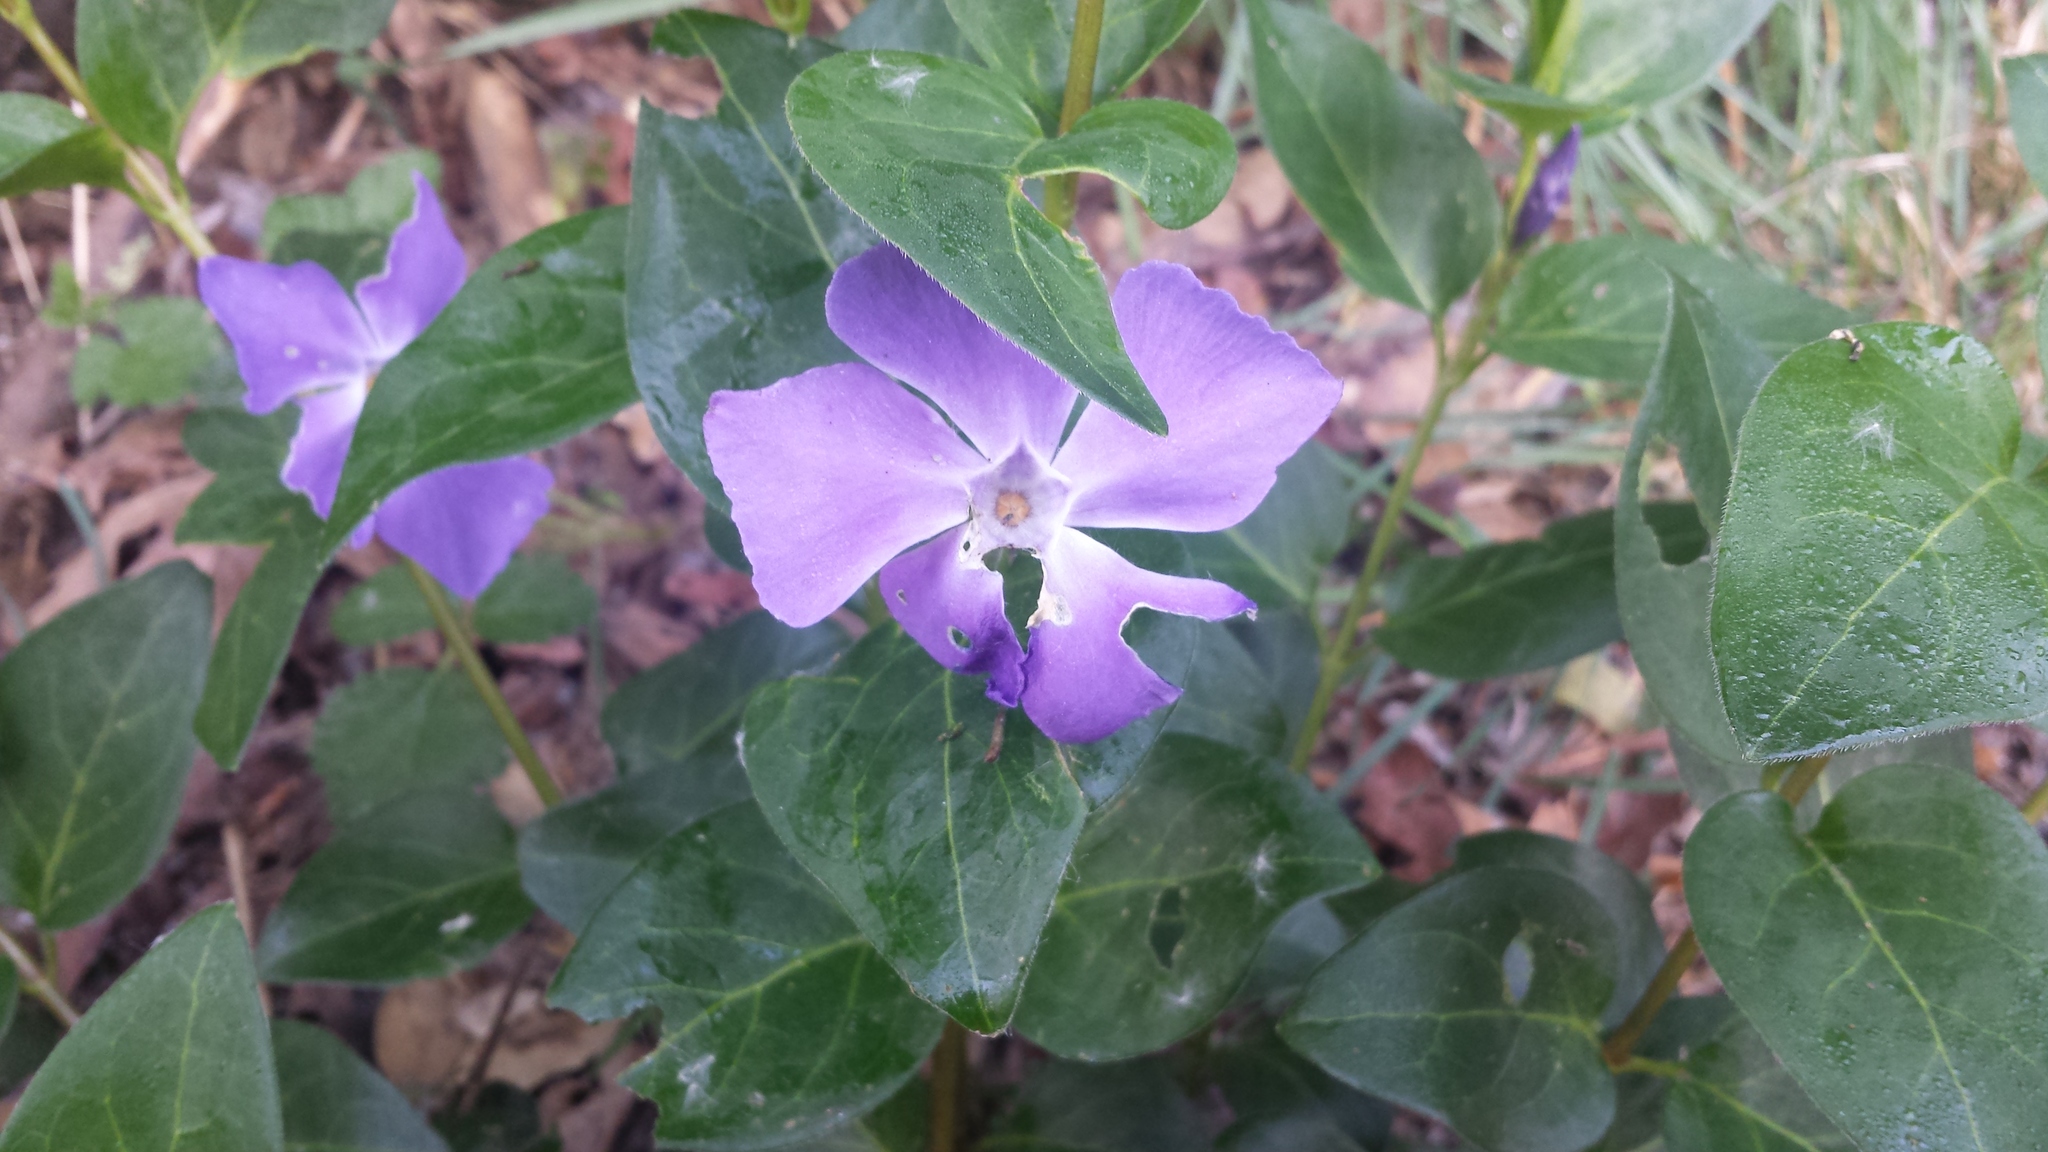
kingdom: Plantae
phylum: Tracheophyta
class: Magnoliopsida
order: Gentianales
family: Apocynaceae
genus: Vinca
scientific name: Vinca major
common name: Greater periwinkle
